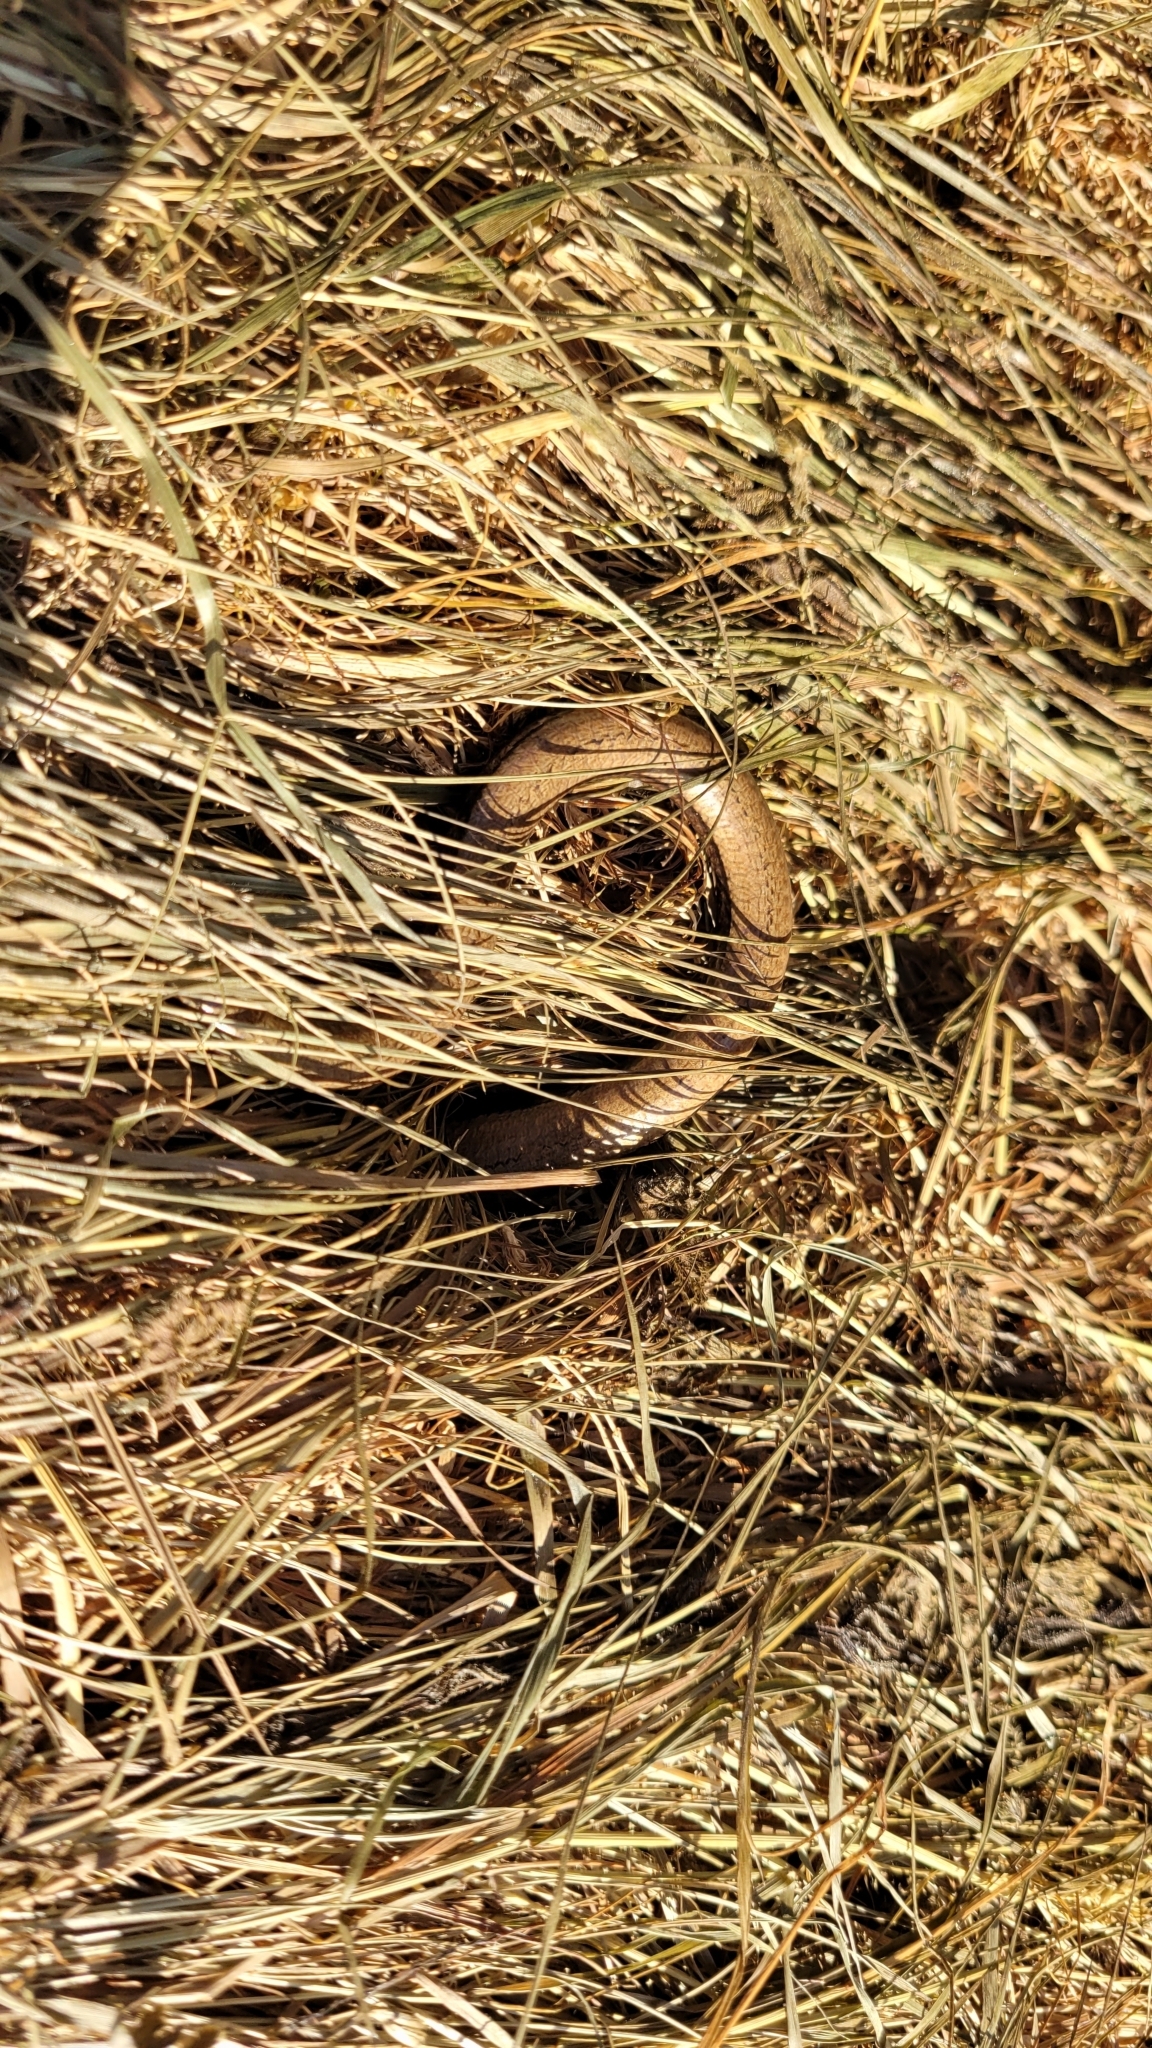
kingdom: Animalia
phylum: Chordata
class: Squamata
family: Anguidae
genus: Anguis
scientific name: Anguis fragilis
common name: Slow worm
